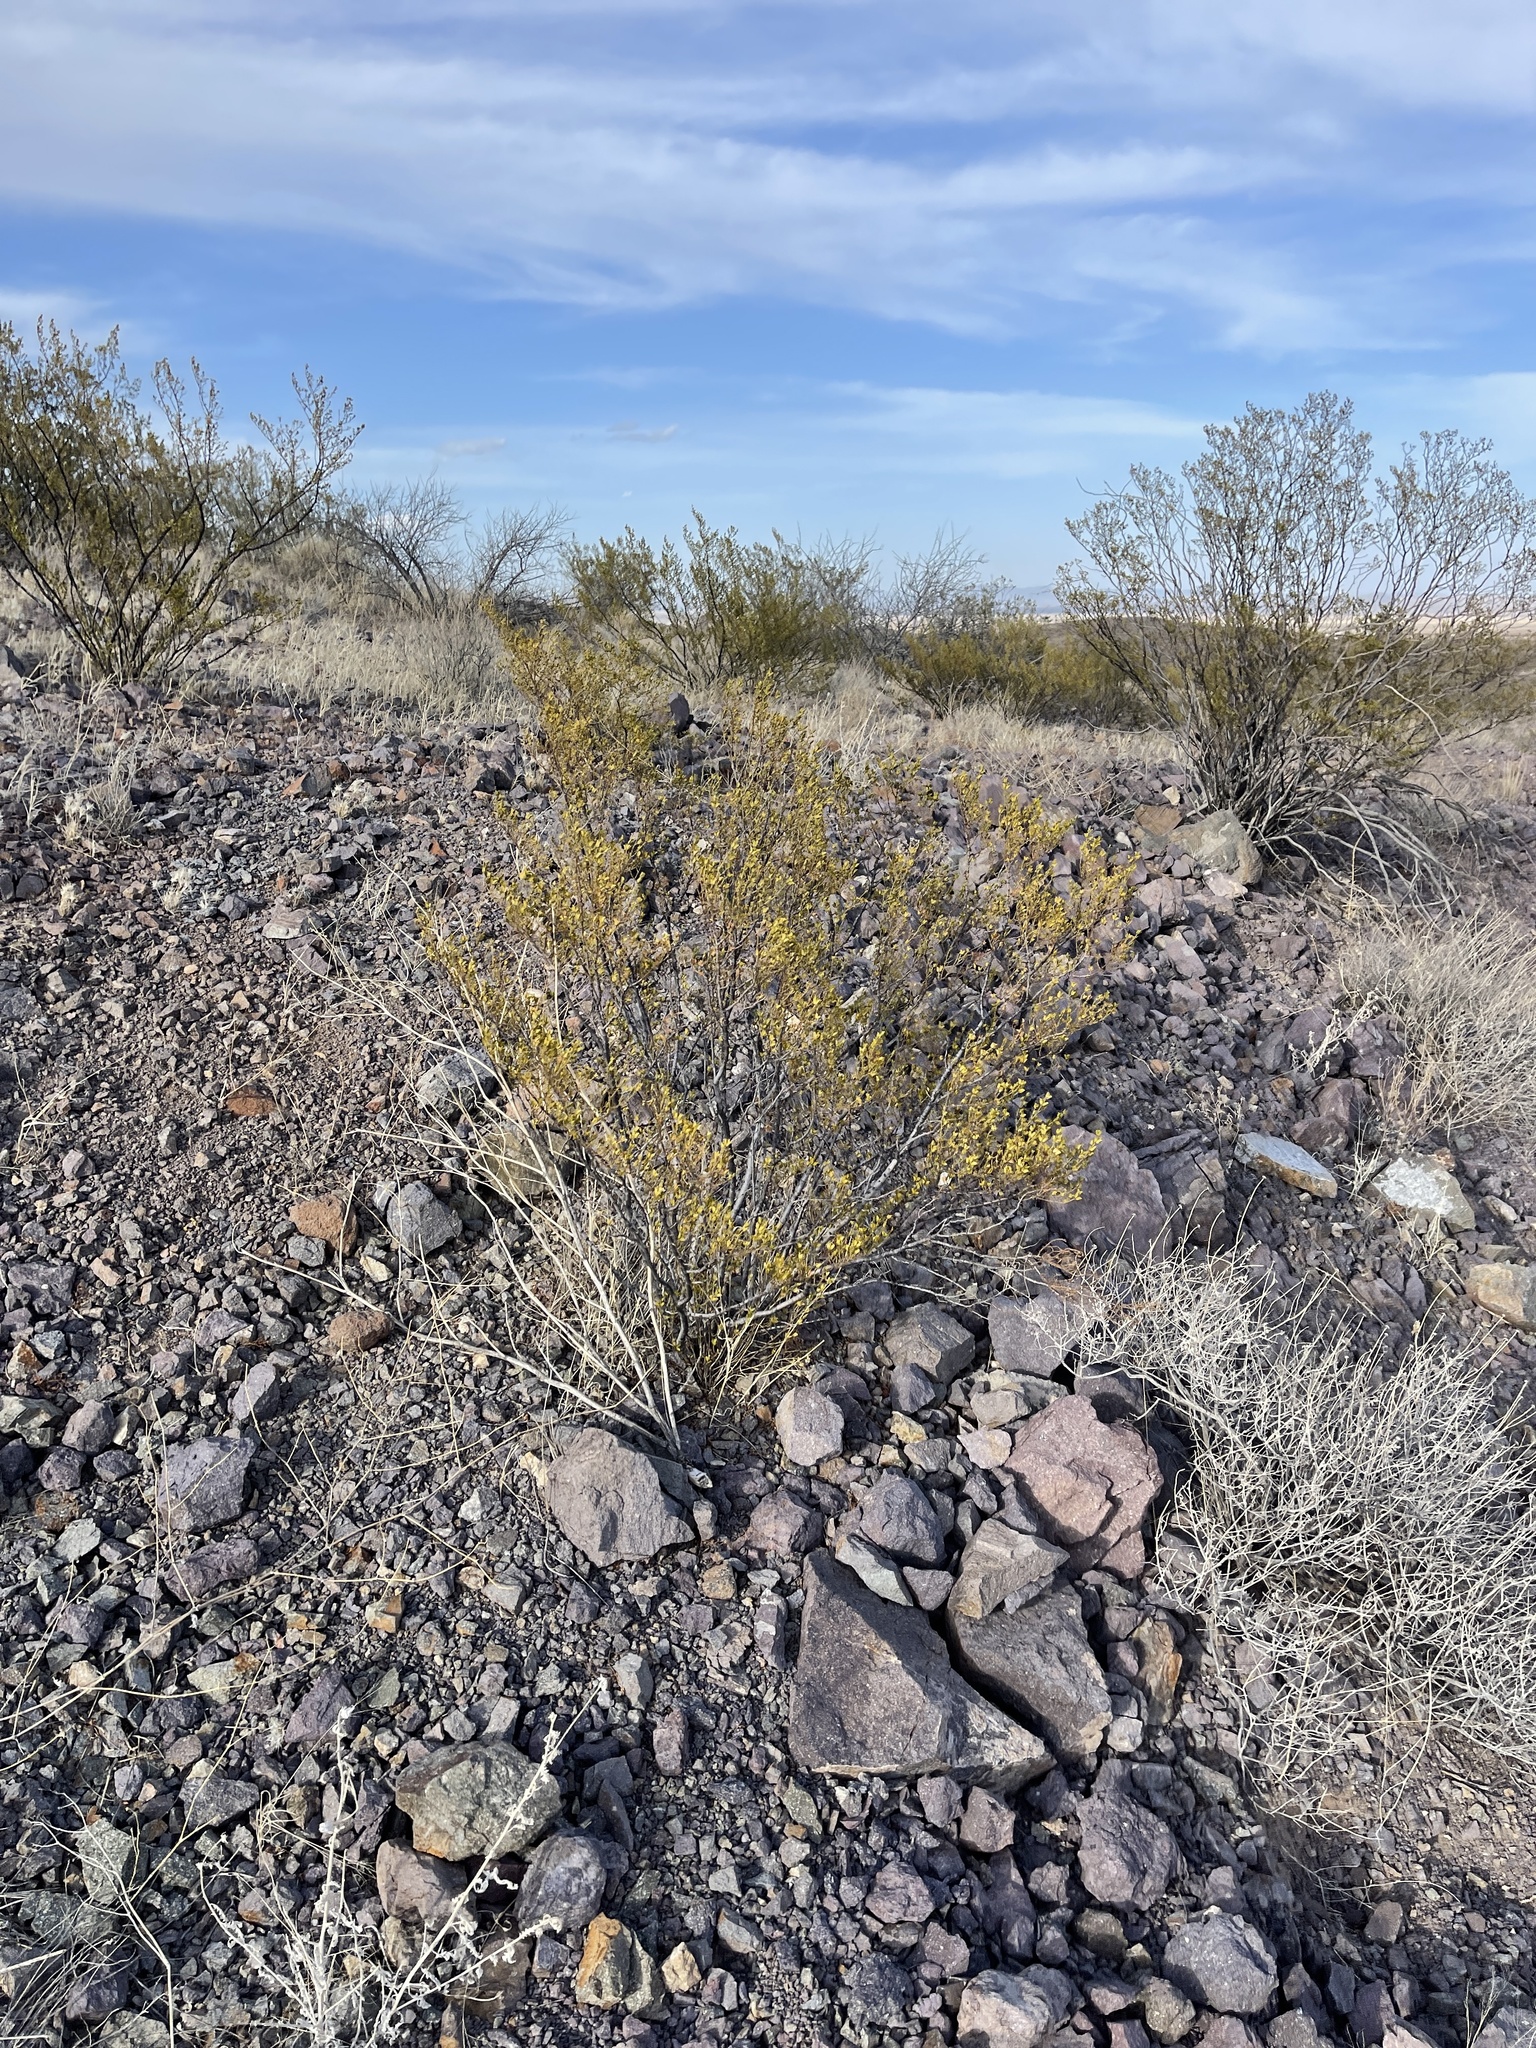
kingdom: Plantae
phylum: Tracheophyta
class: Magnoliopsida
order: Zygophyllales
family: Zygophyllaceae
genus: Larrea
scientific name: Larrea tridentata
